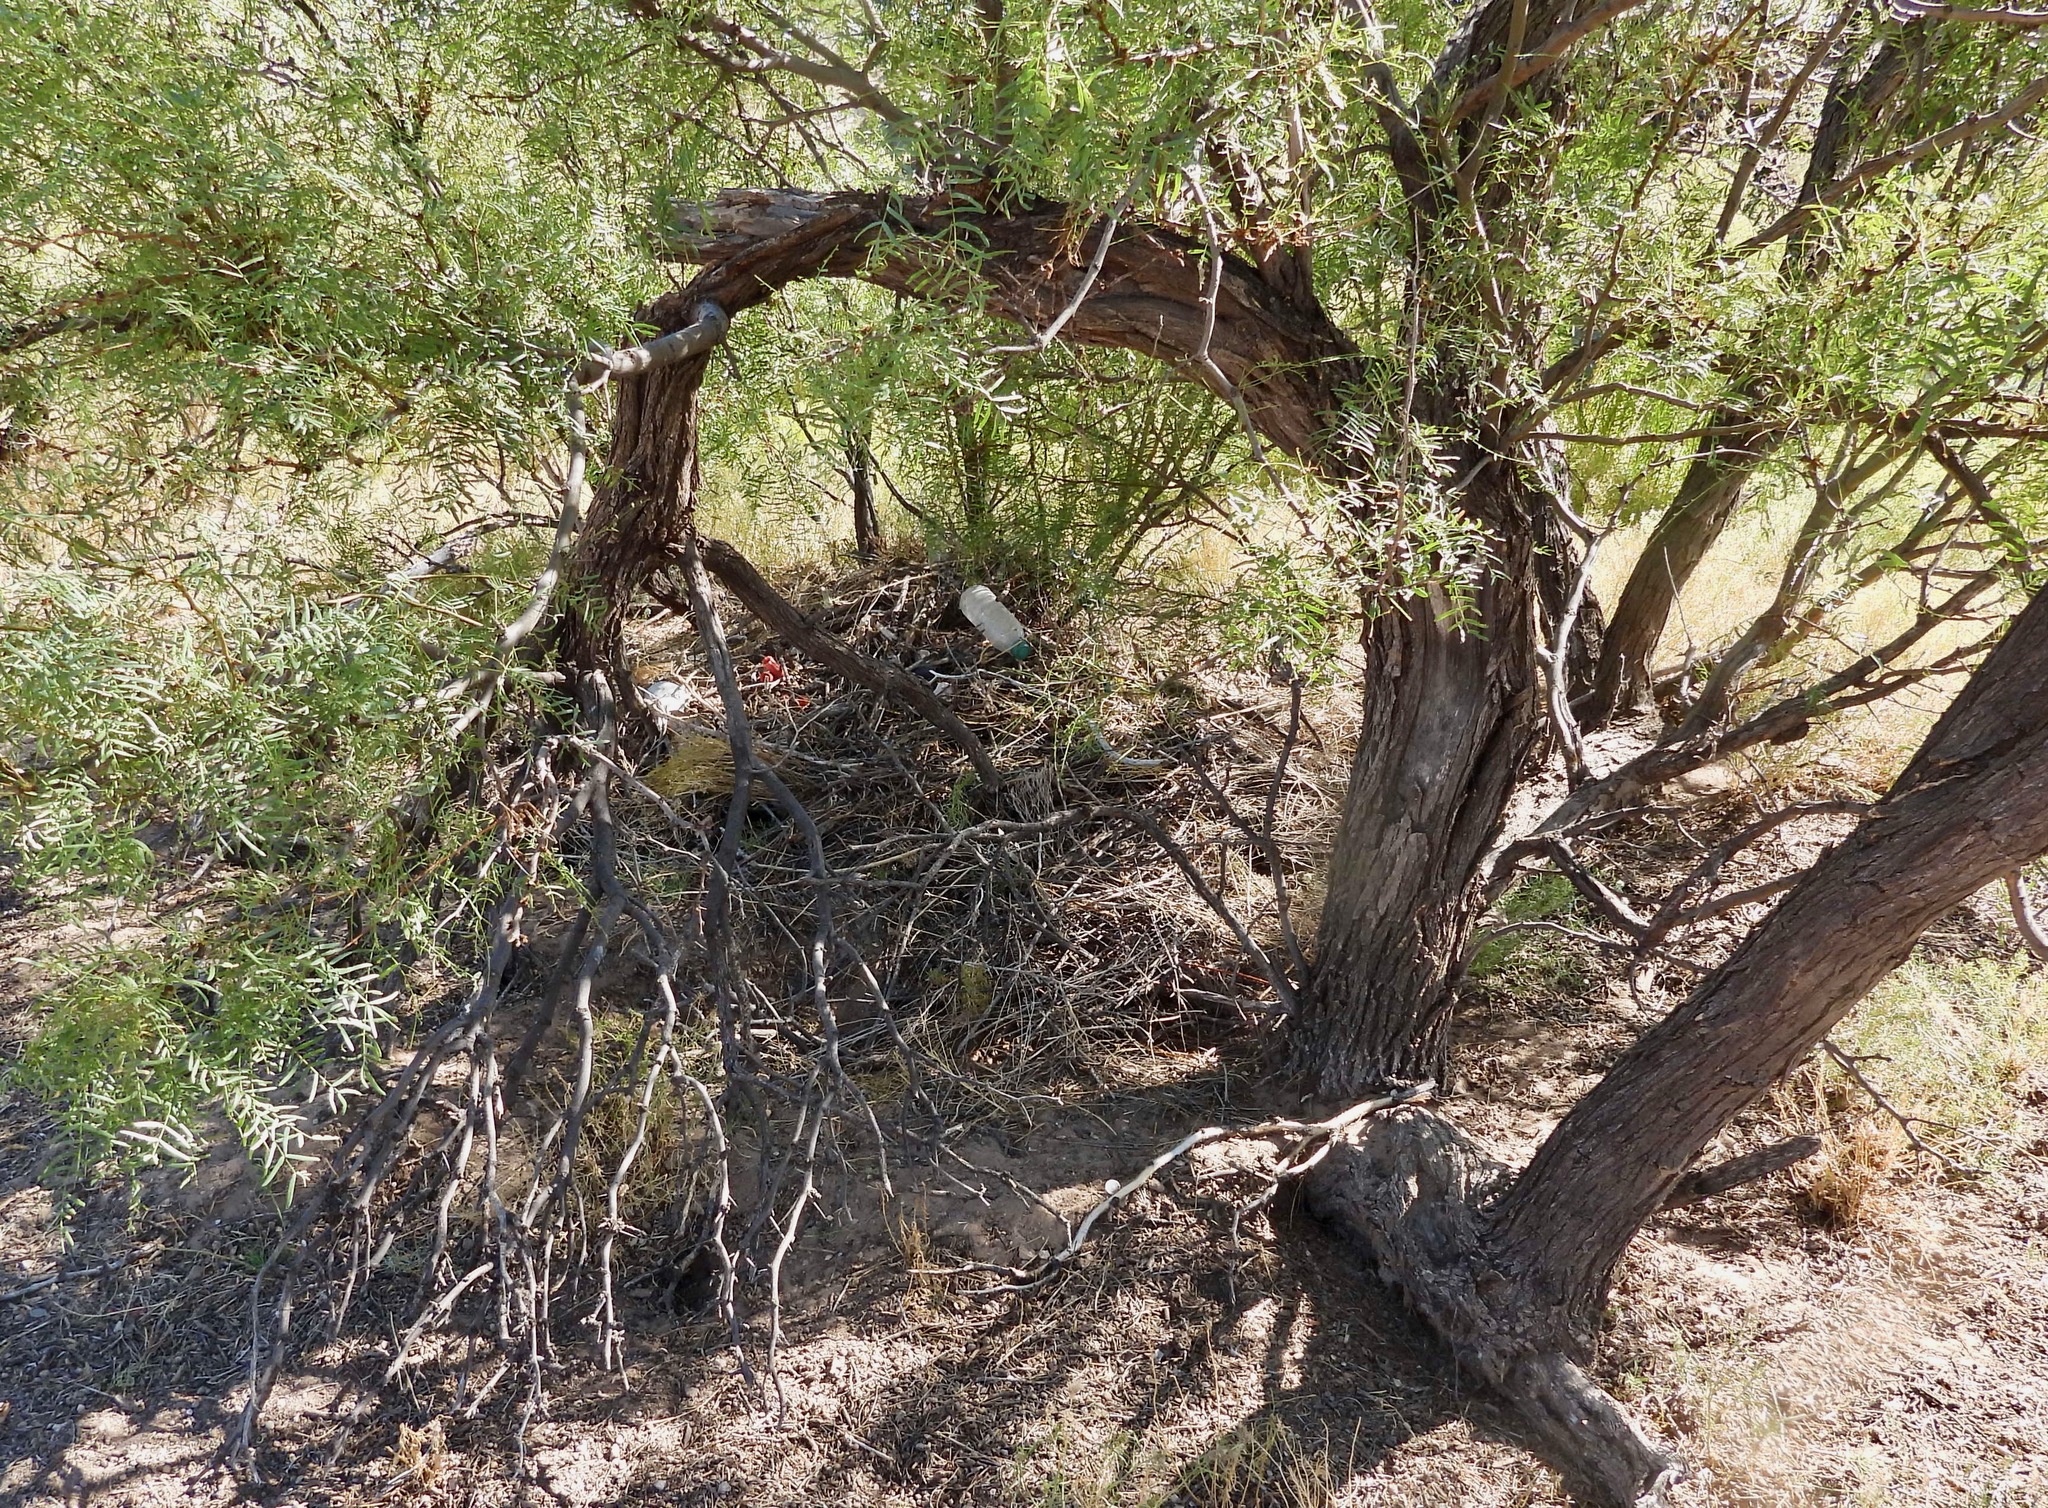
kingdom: Animalia
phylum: Chordata
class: Mammalia
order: Rodentia
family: Cricetidae
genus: Neotoma
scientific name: Neotoma micropus
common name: Southern plains woodrat
